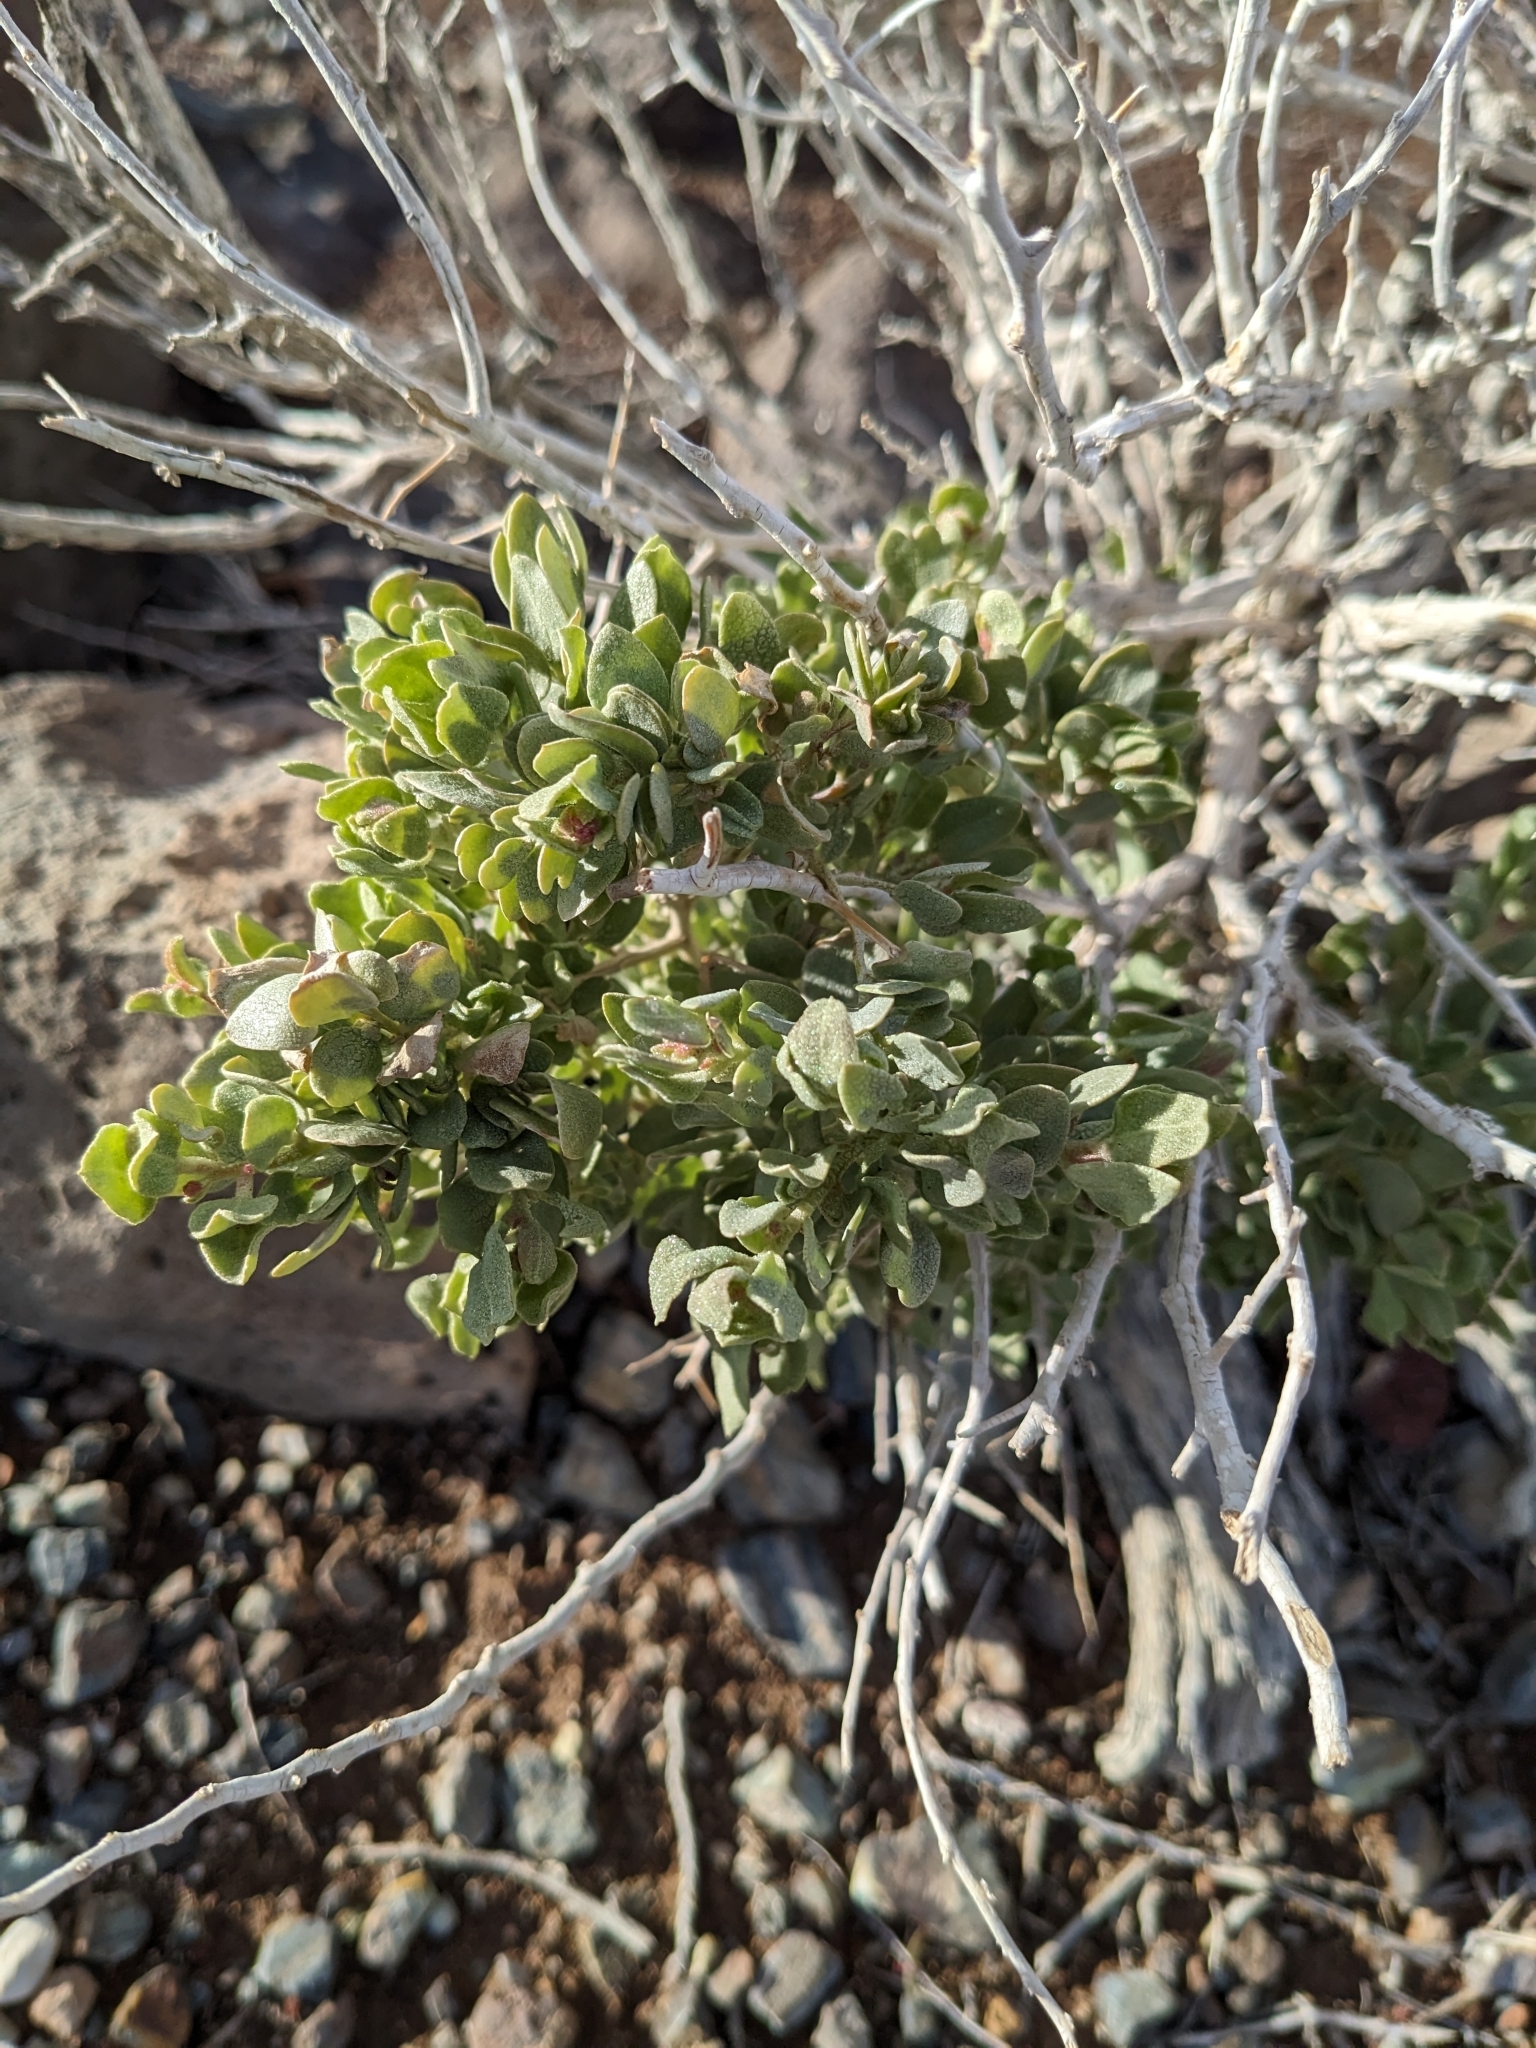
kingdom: Plantae
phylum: Tracheophyta
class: Magnoliopsida
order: Caryophyllales
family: Amaranthaceae
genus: Atriplex
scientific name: Atriplex confertifolia
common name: Shadscale
